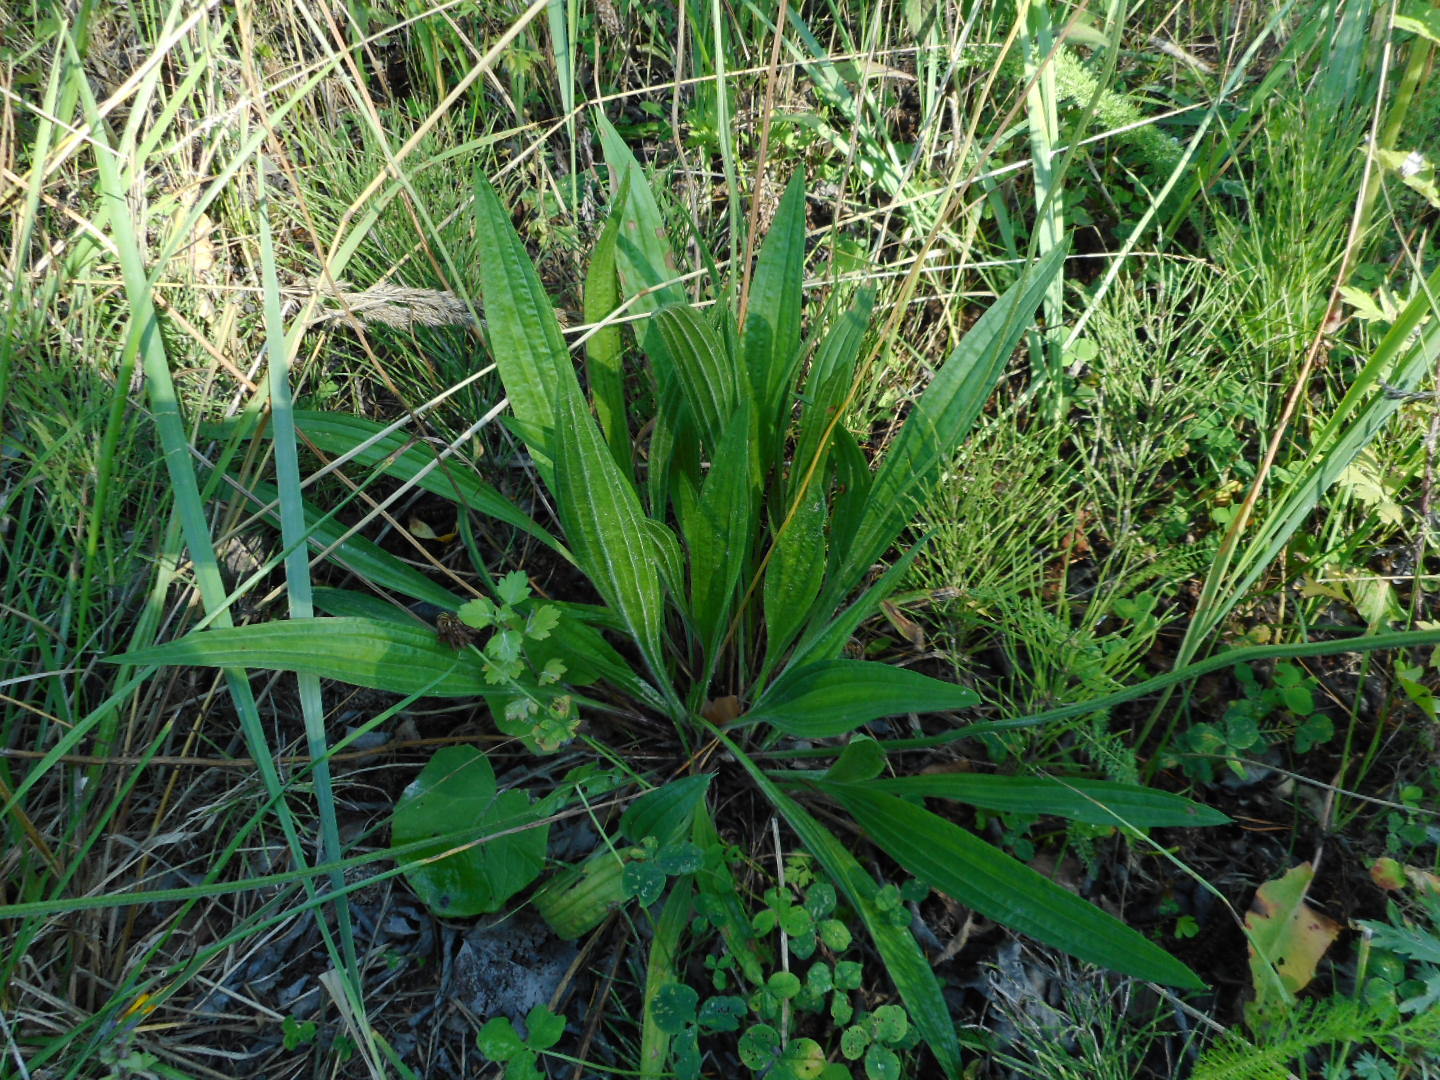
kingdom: Plantae
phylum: Tracheophyta
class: Magnoliopsida
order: Lamiales
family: Plantaginaceae
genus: Plantago
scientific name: Plantago lanceolata
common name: Ribwort plantain
